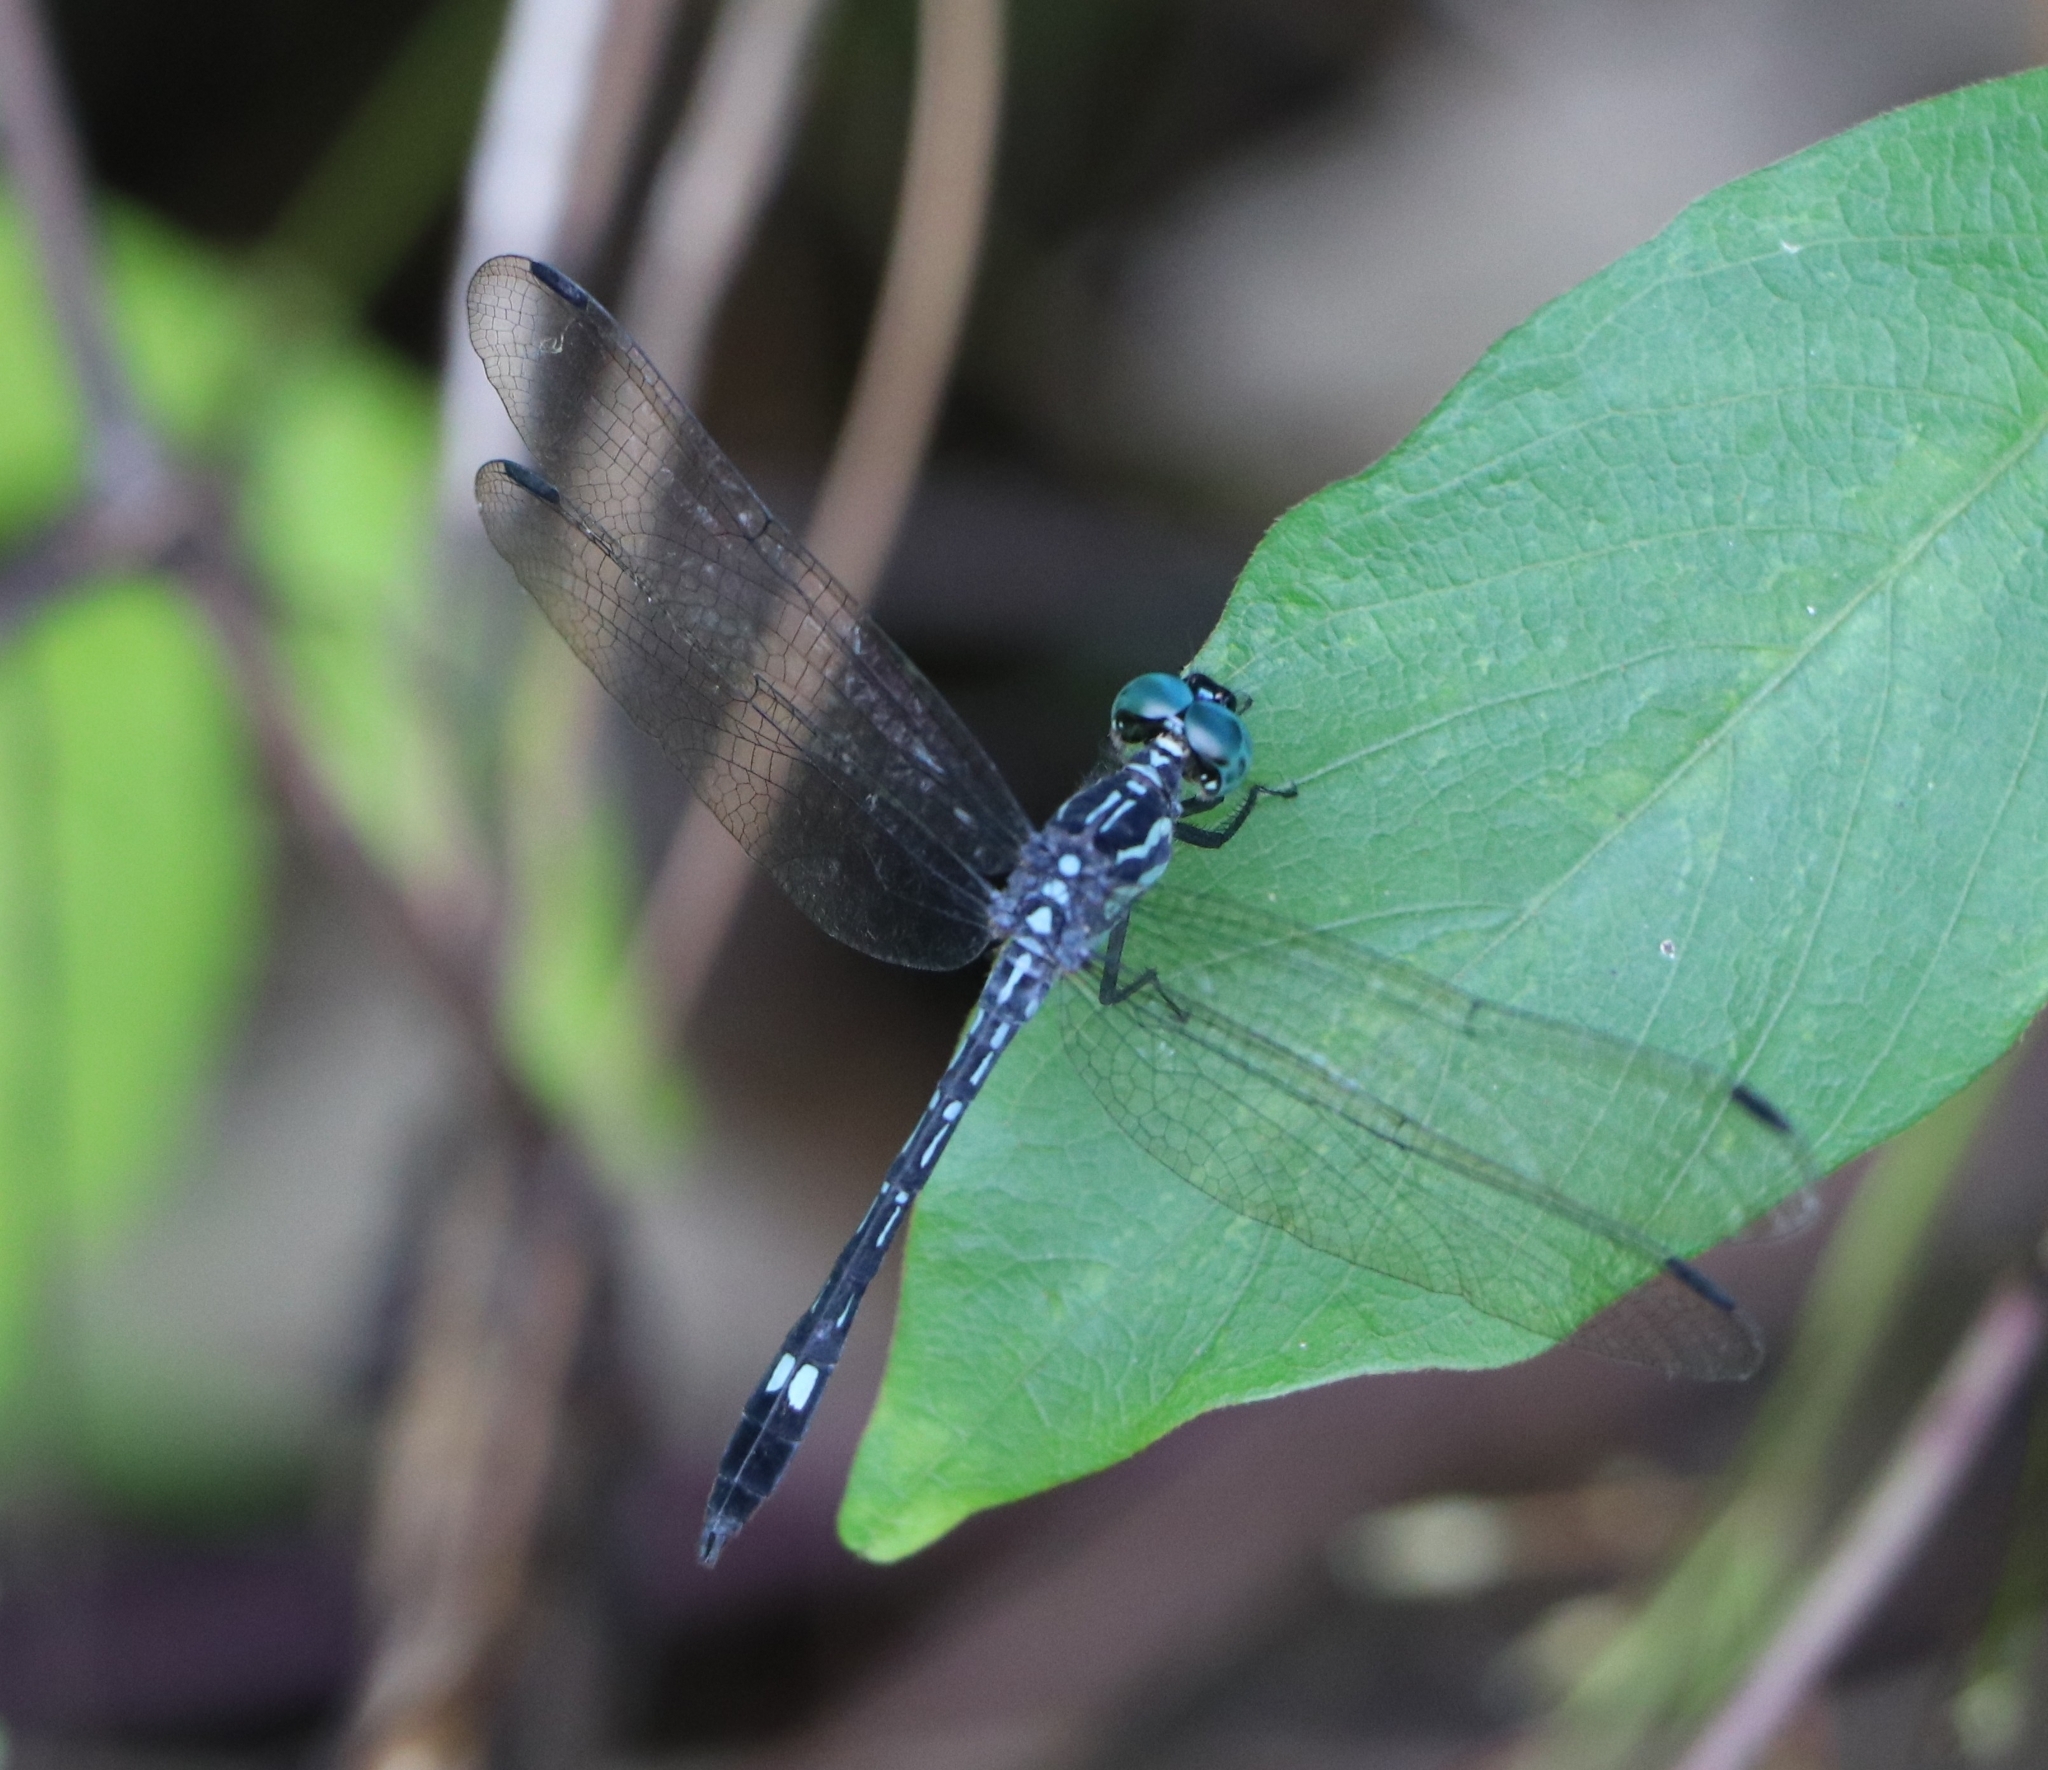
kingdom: Animalia
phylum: Arthropoda
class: Insecta
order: Odonata
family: Libellulidae
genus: Hylaeothemis
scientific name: Hylaeothemis apicalis
